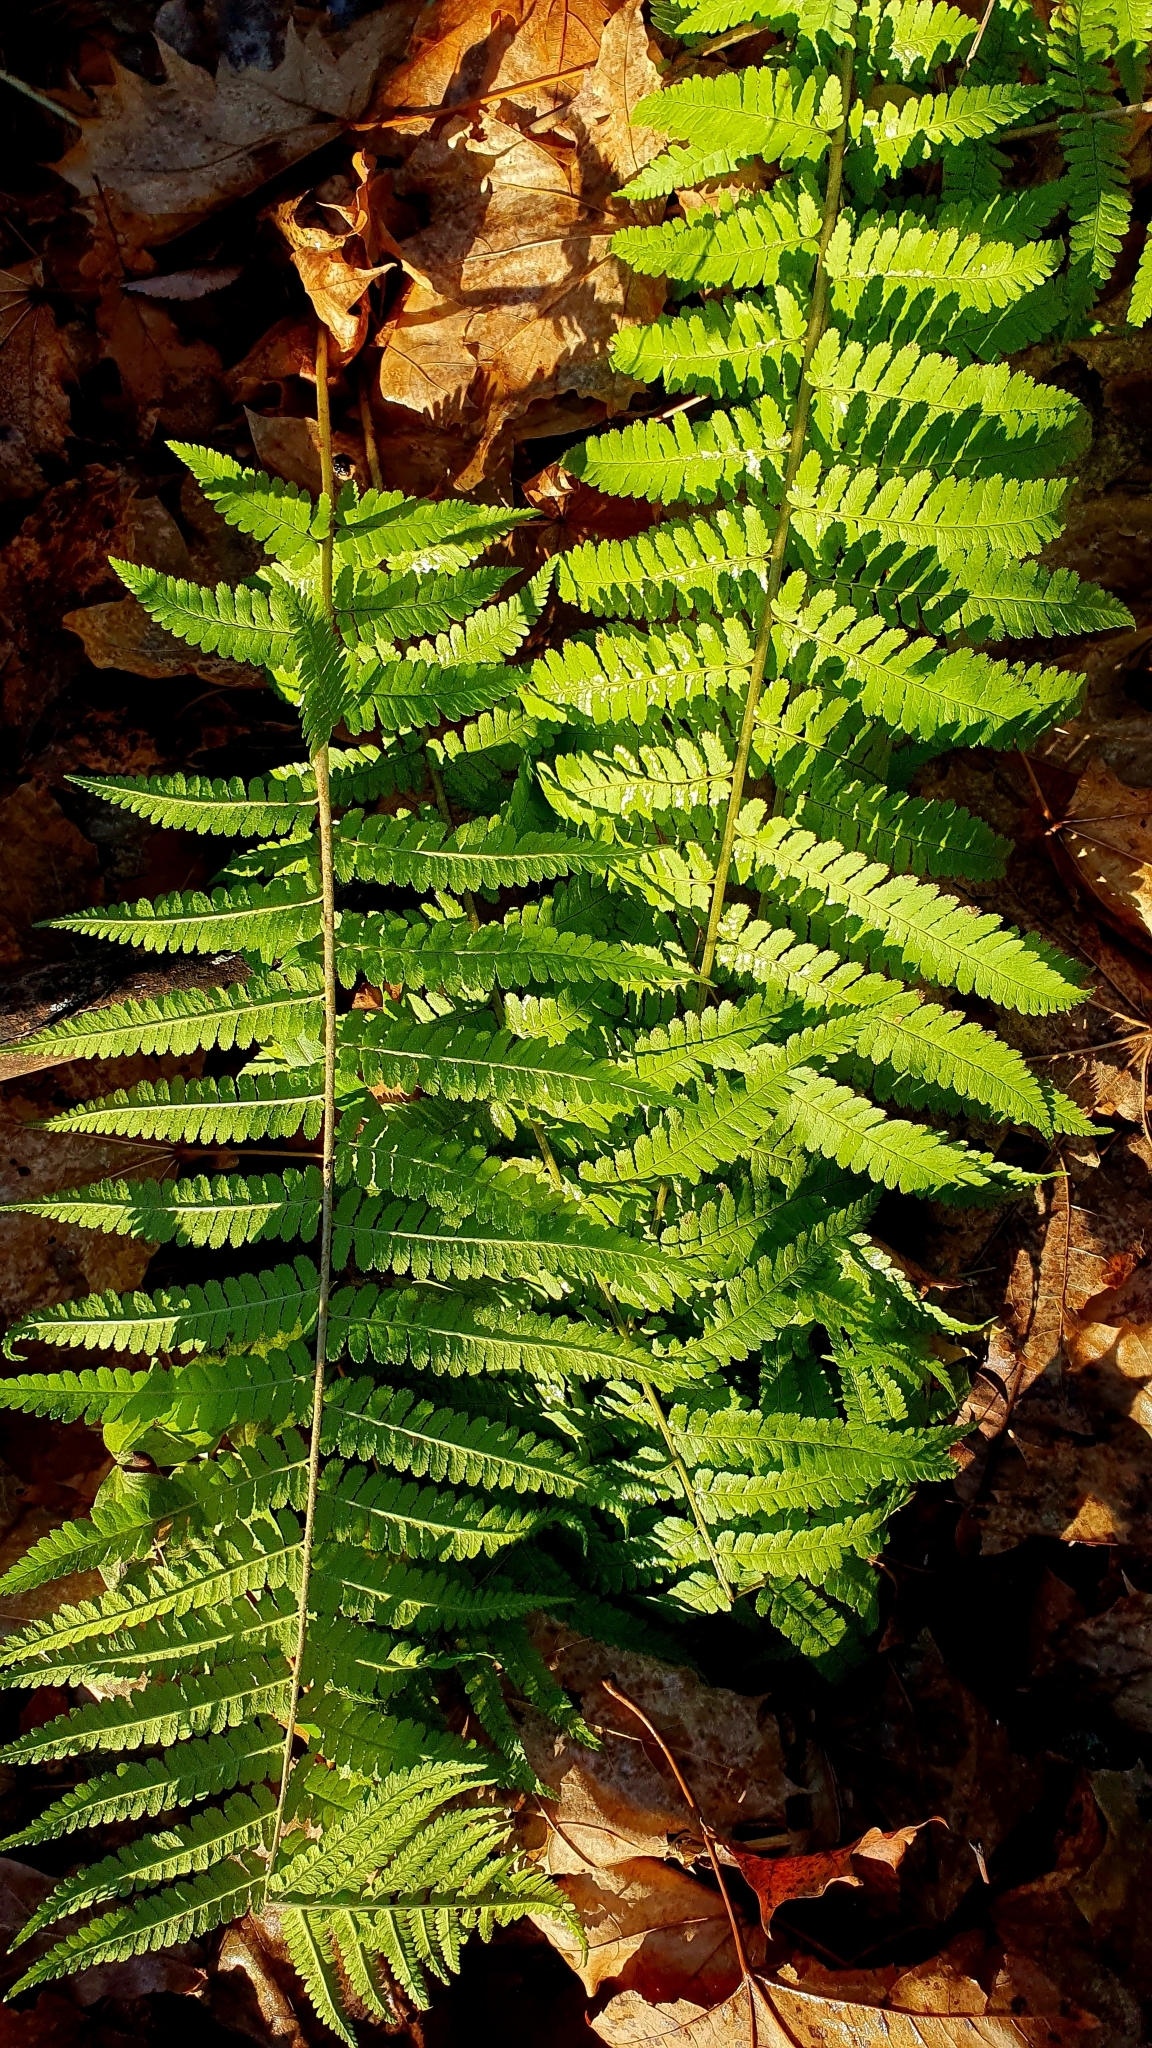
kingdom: Plantae
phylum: Tracheophyta
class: Polypodiopsida
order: Polypodiales
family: Dryopteridaceae
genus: Dryopteris
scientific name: Dryopteris filix-mas
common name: Male fern
